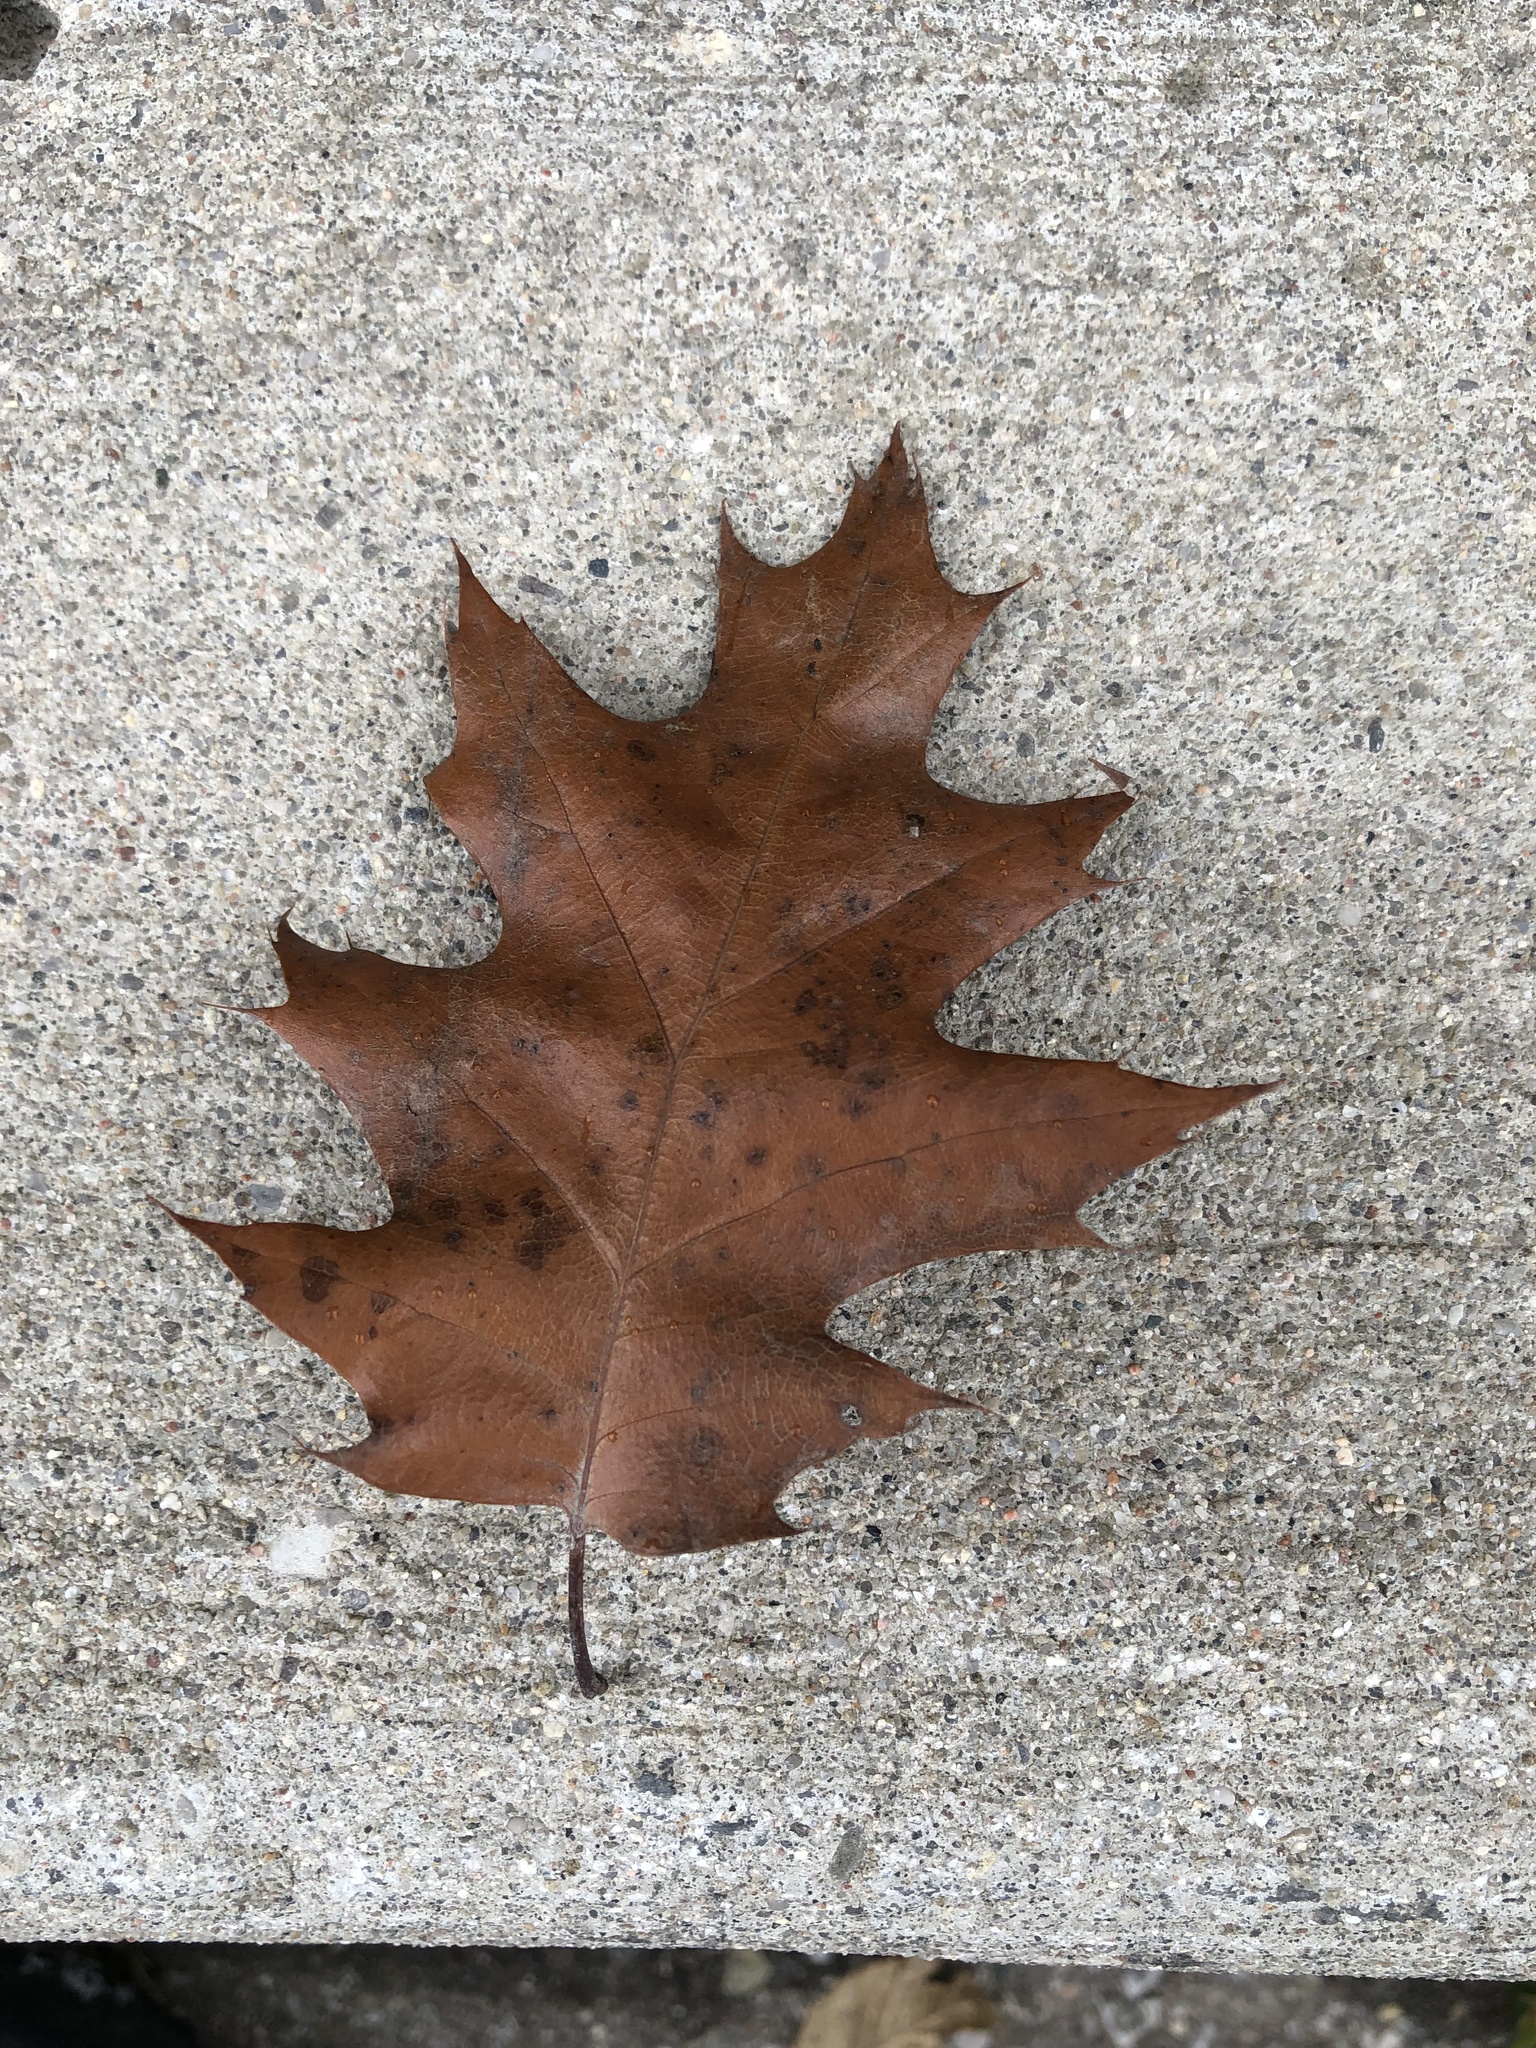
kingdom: Plantae
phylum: Tracheophyta
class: Magnoliopsida
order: Fagales
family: Fagaceae
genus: Quercus
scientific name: Quercus rubra
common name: Red oak
